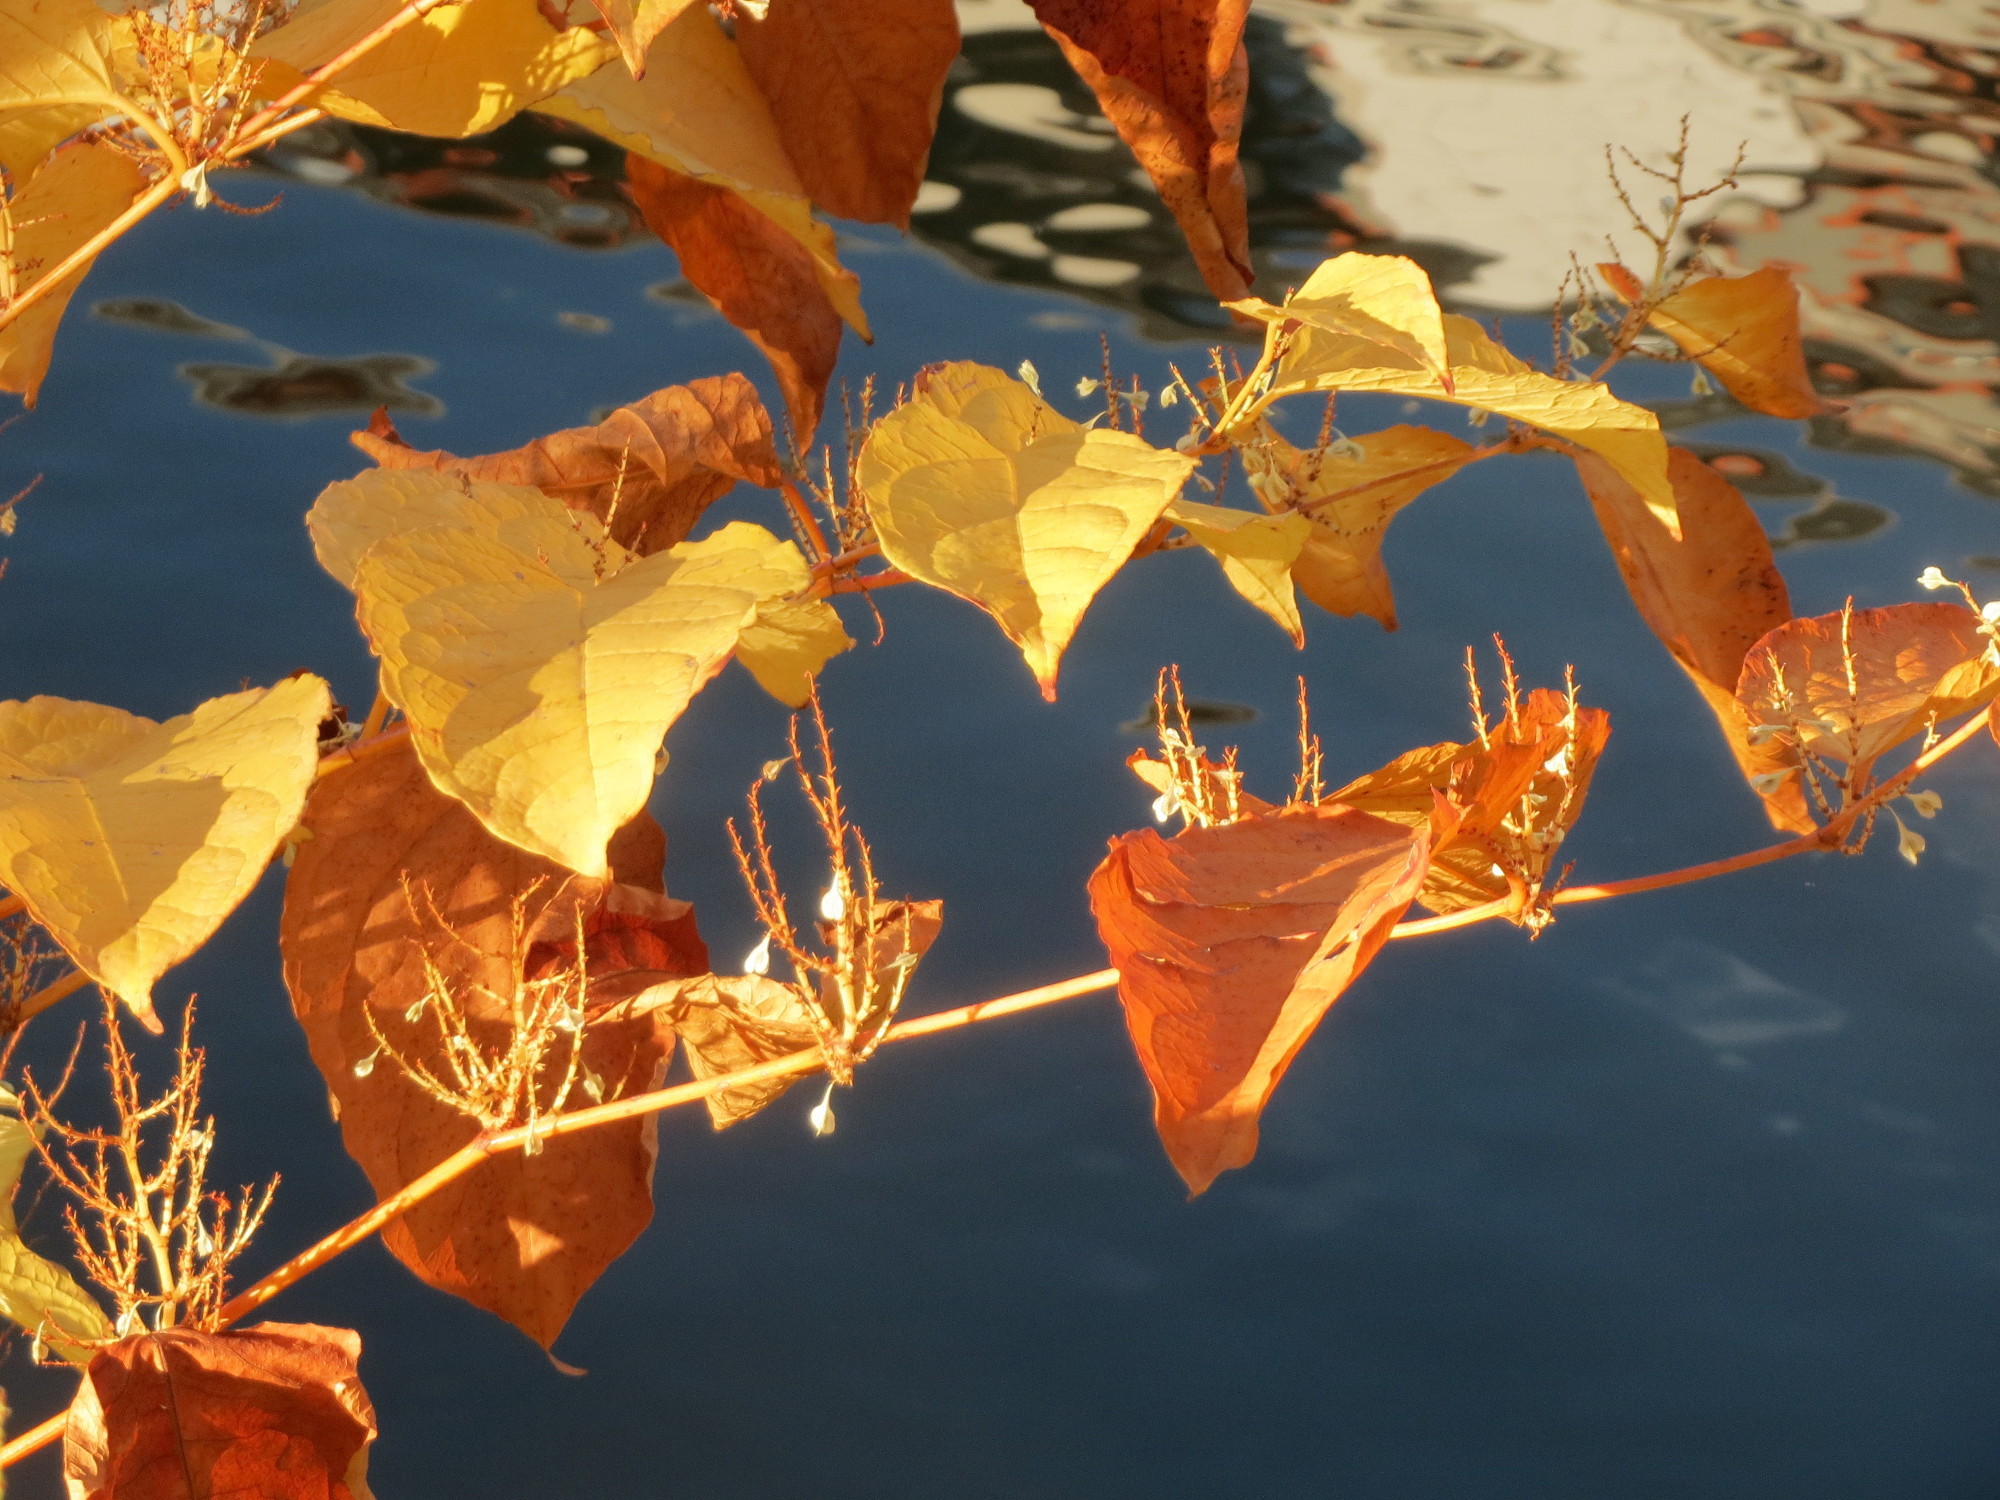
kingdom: Plantae
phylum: Tracheophyta
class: Magnoliopsida
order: Caryophyllales
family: Polygonaceae
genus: Reynoutria
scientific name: Reynoutria japonica
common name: Japanese knotweed
